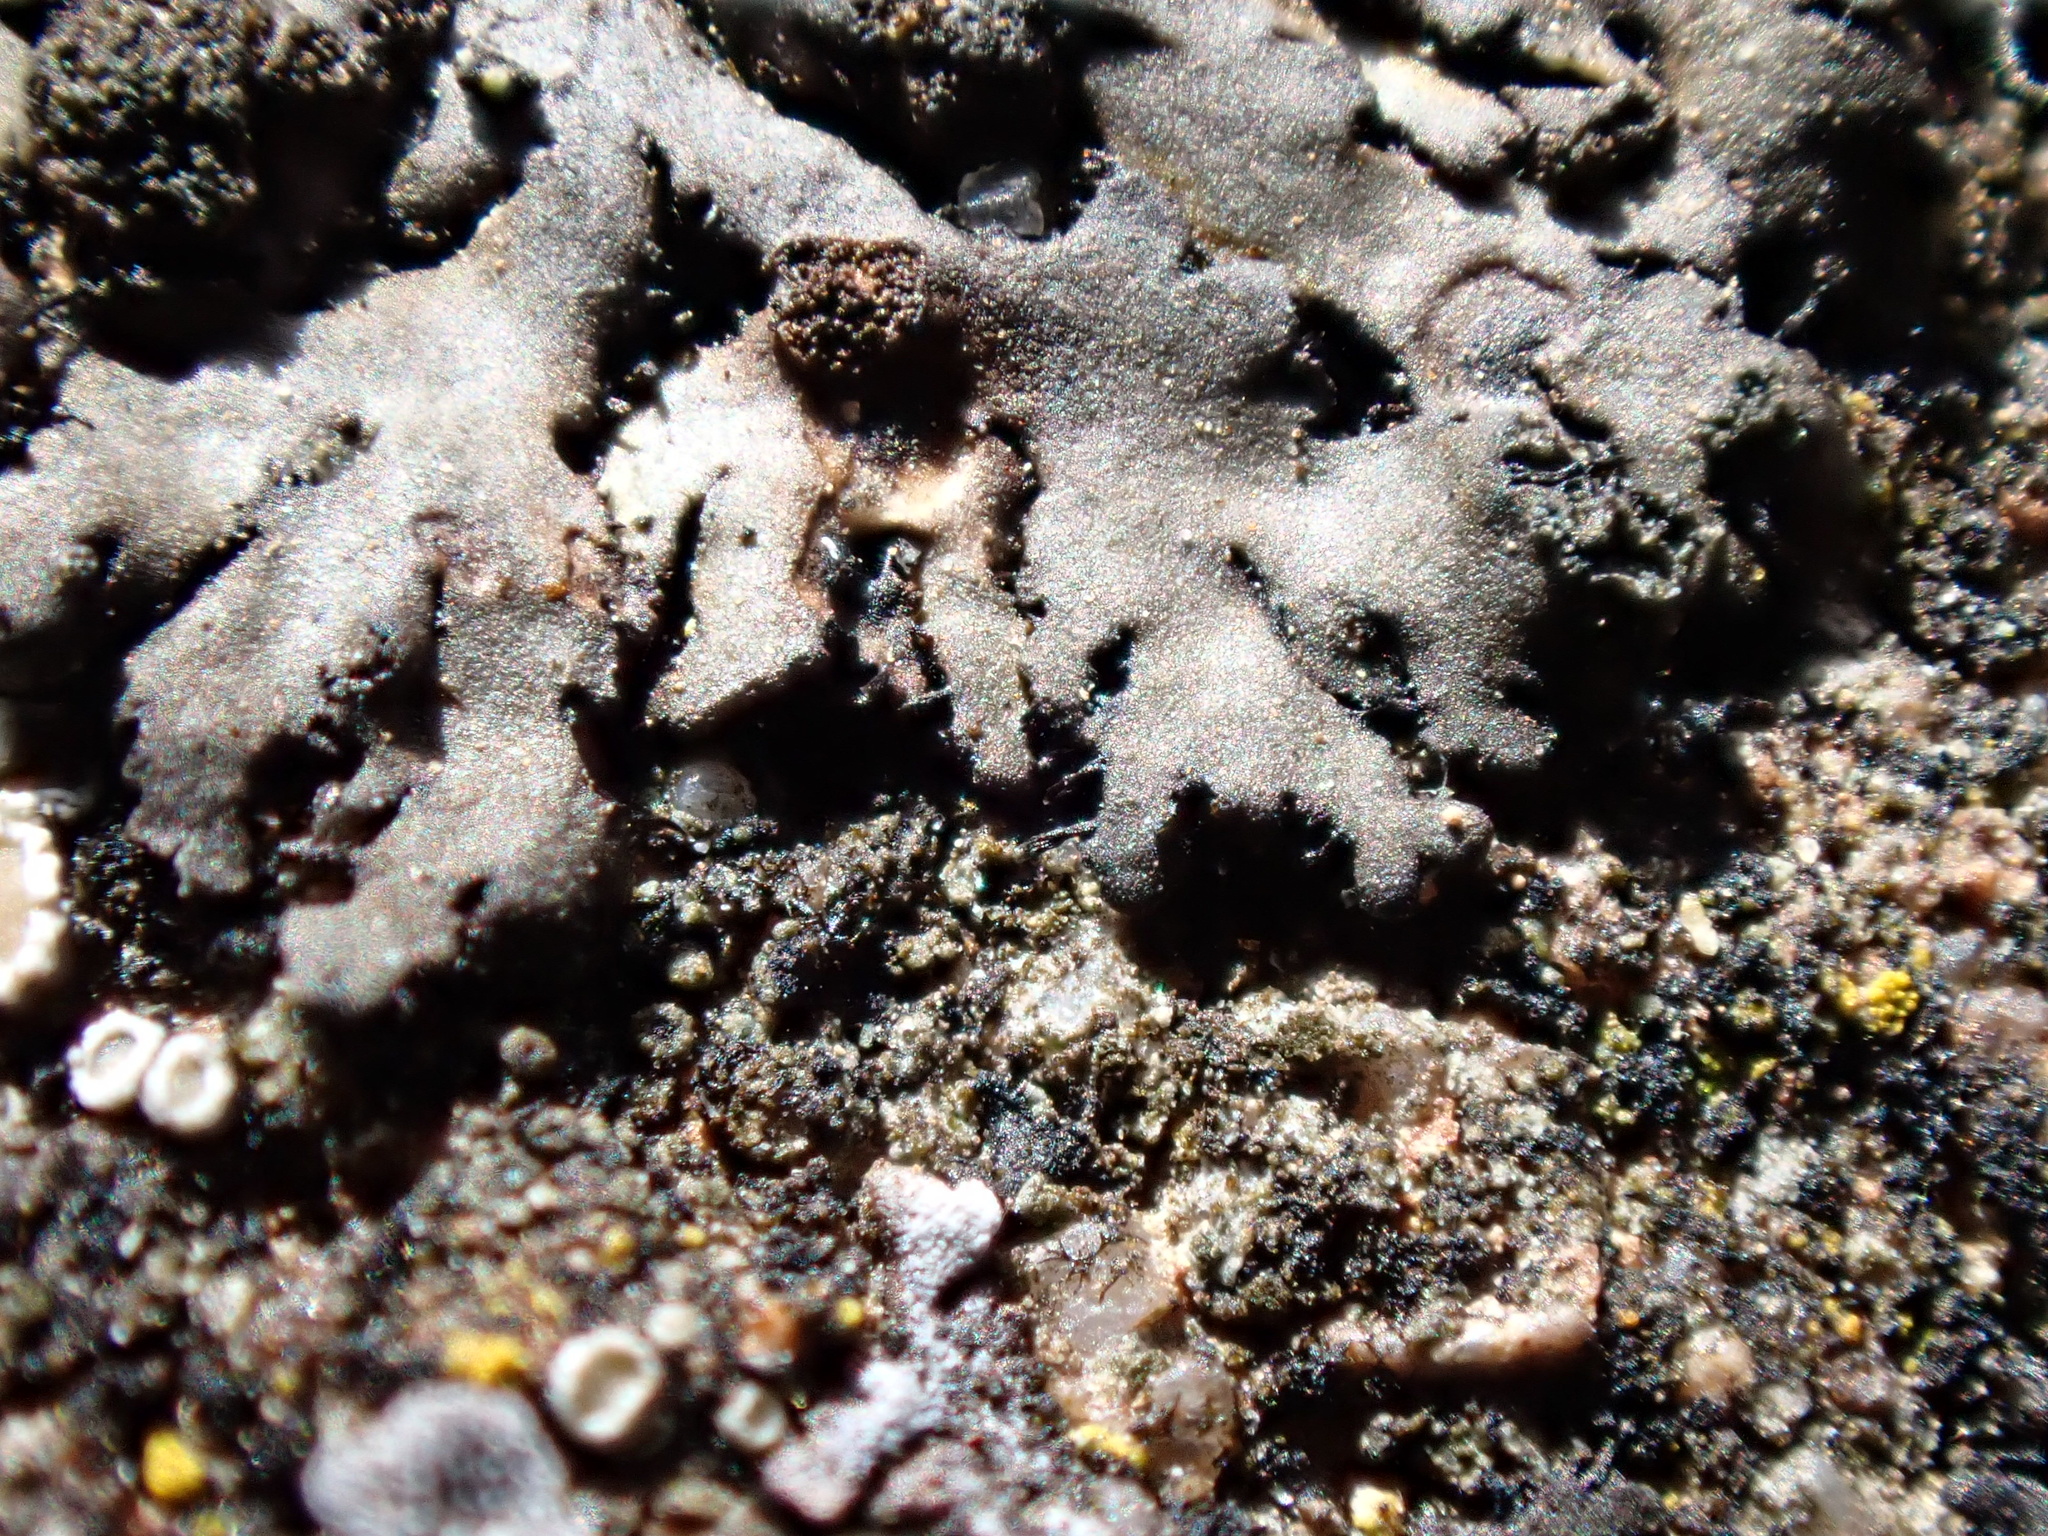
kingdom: Fungi
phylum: Ascomycota
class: Lecanoromycetes
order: Caliciales
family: Physciaceae
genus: Phaeophyscia
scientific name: Phaeophyscia orbicularis
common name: Mealy shadow lichen
